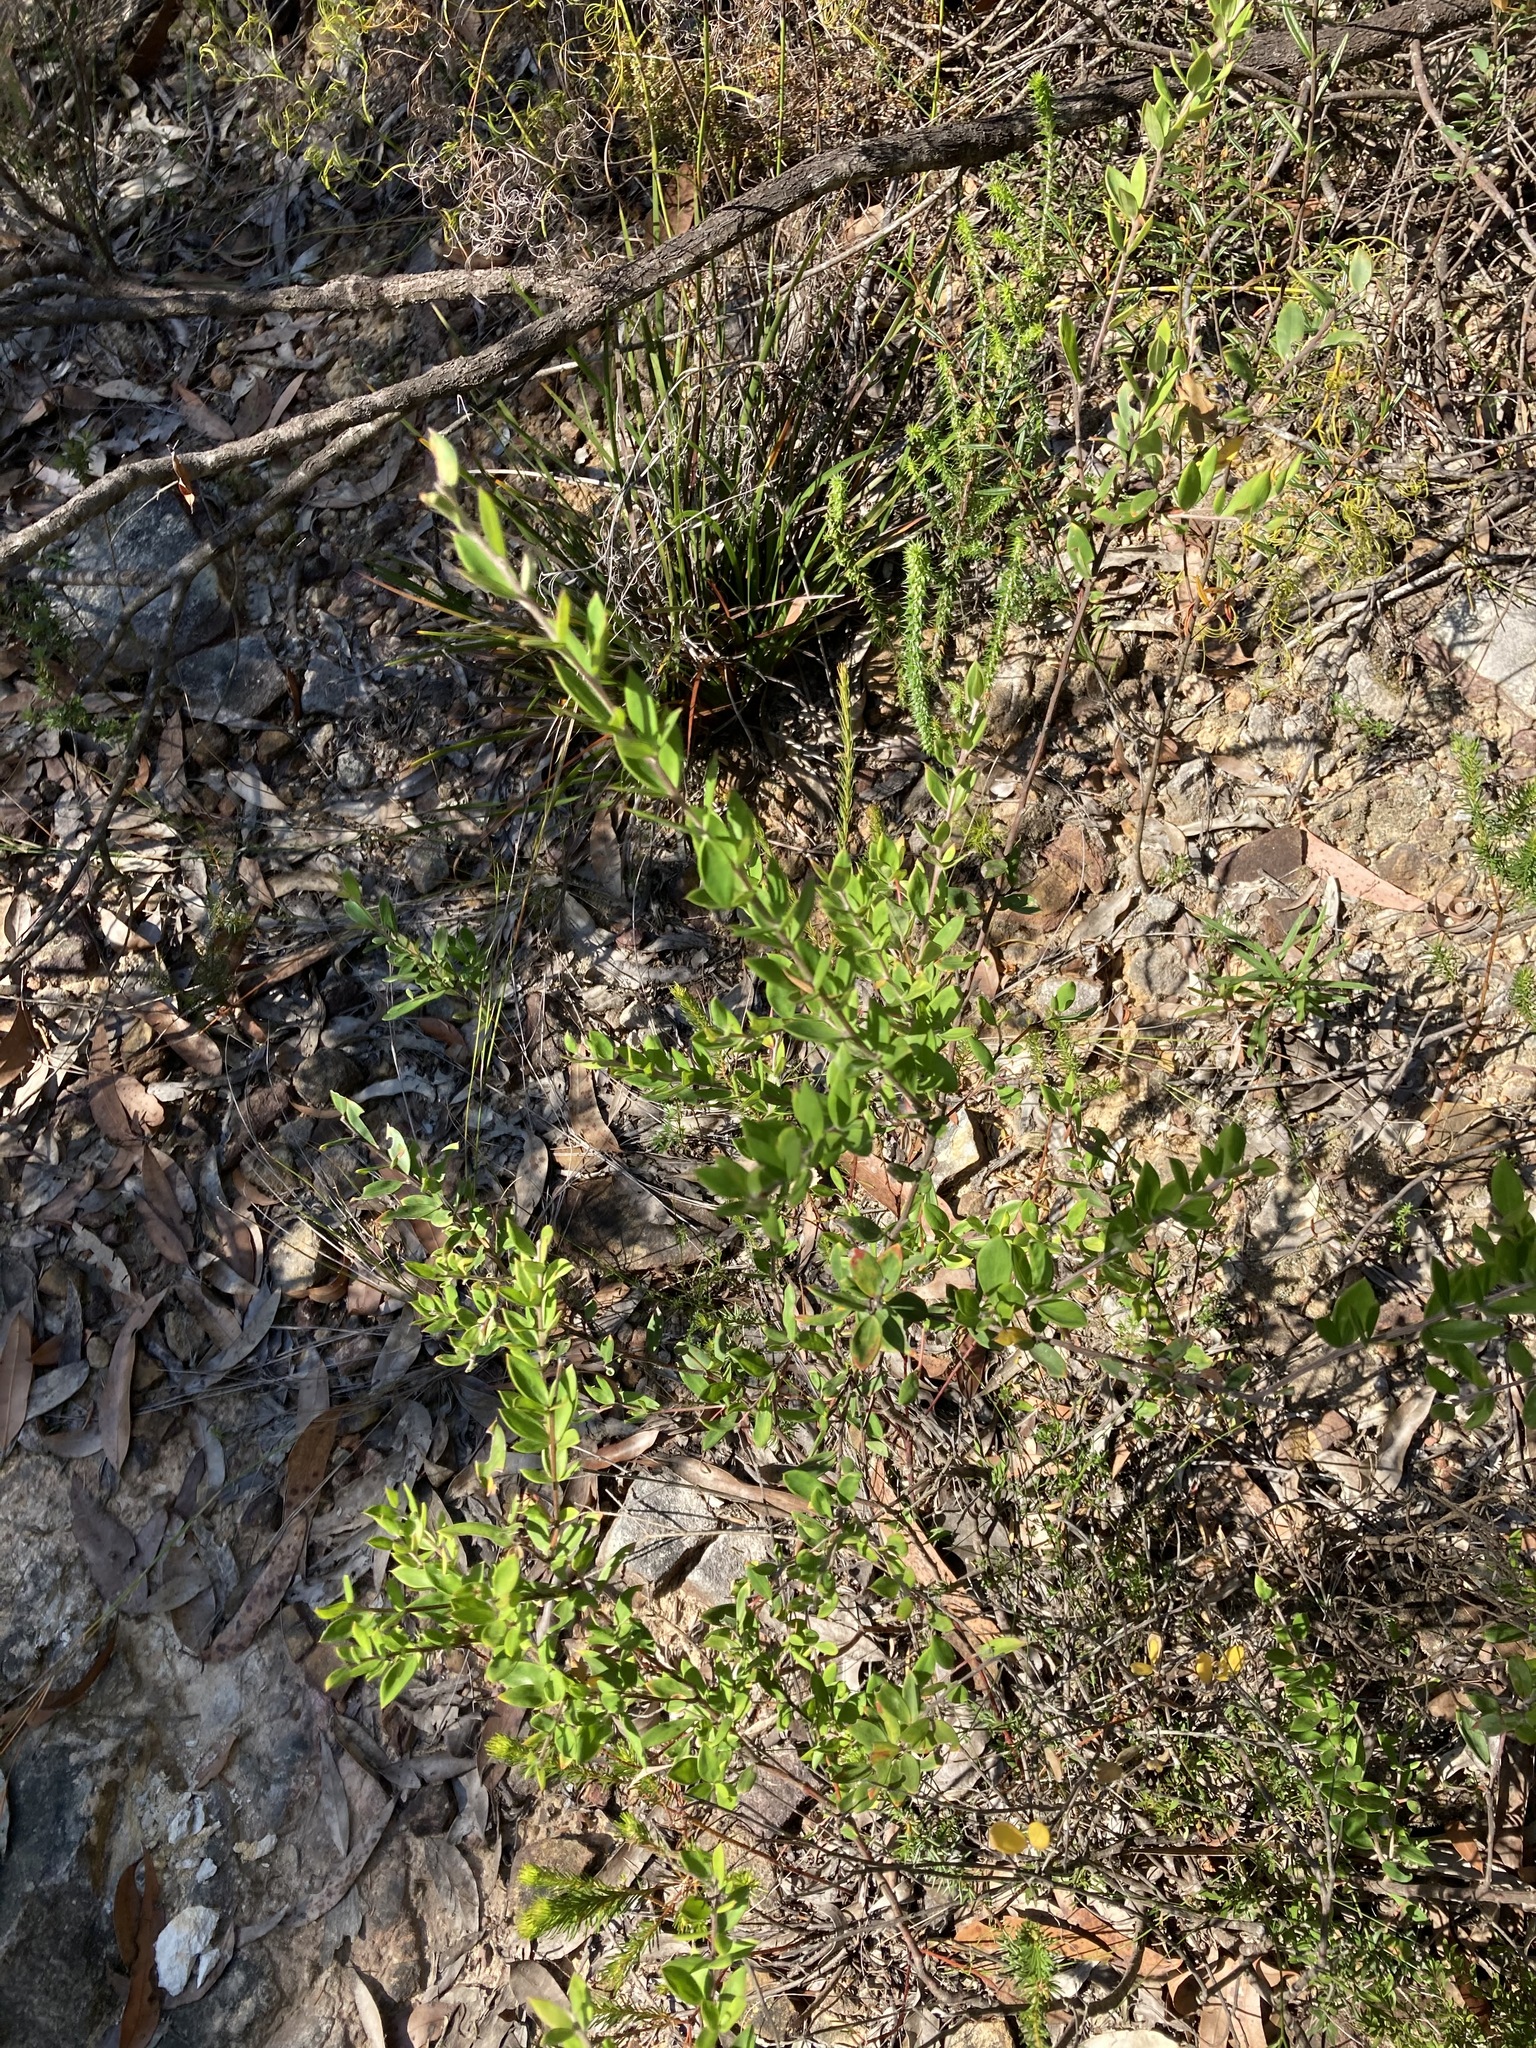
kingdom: Plantae
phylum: Tracheophyta
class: Magnoliopsida
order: Proteales
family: Proteaceae
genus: Grevillea
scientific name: Grevillea speciosa
